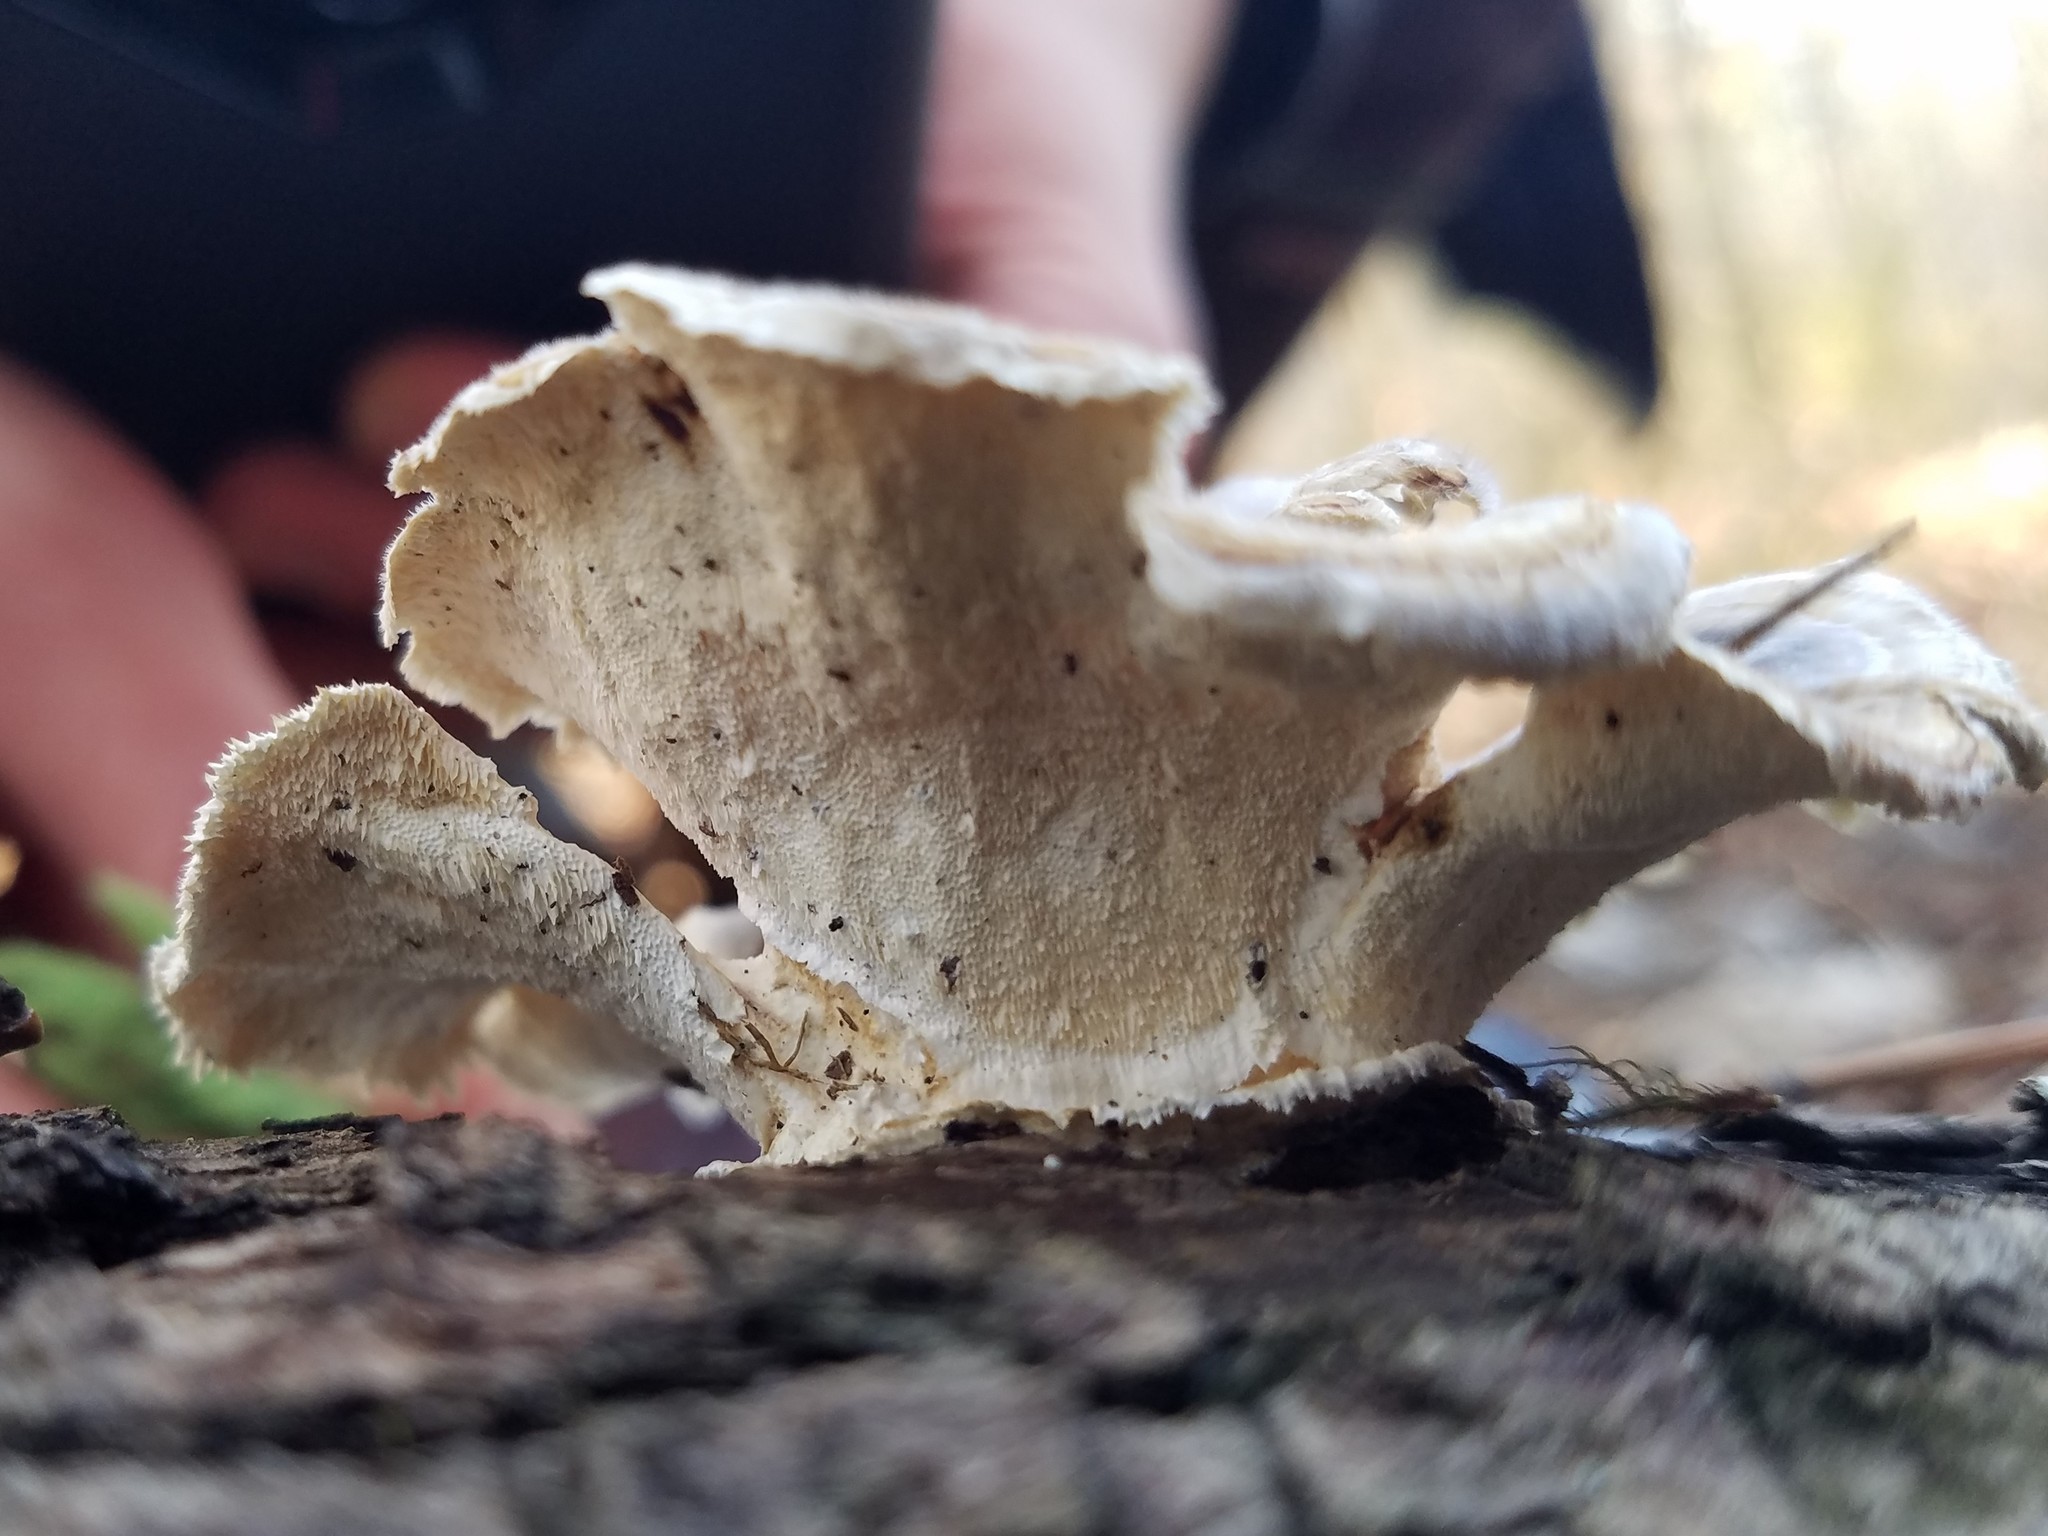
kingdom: Fungi
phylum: Basidiomycota
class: Agaricomycetes
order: Polyporales
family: Polyporaceae
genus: Trametes
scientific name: Trametes versicolor
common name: Turkeytail
